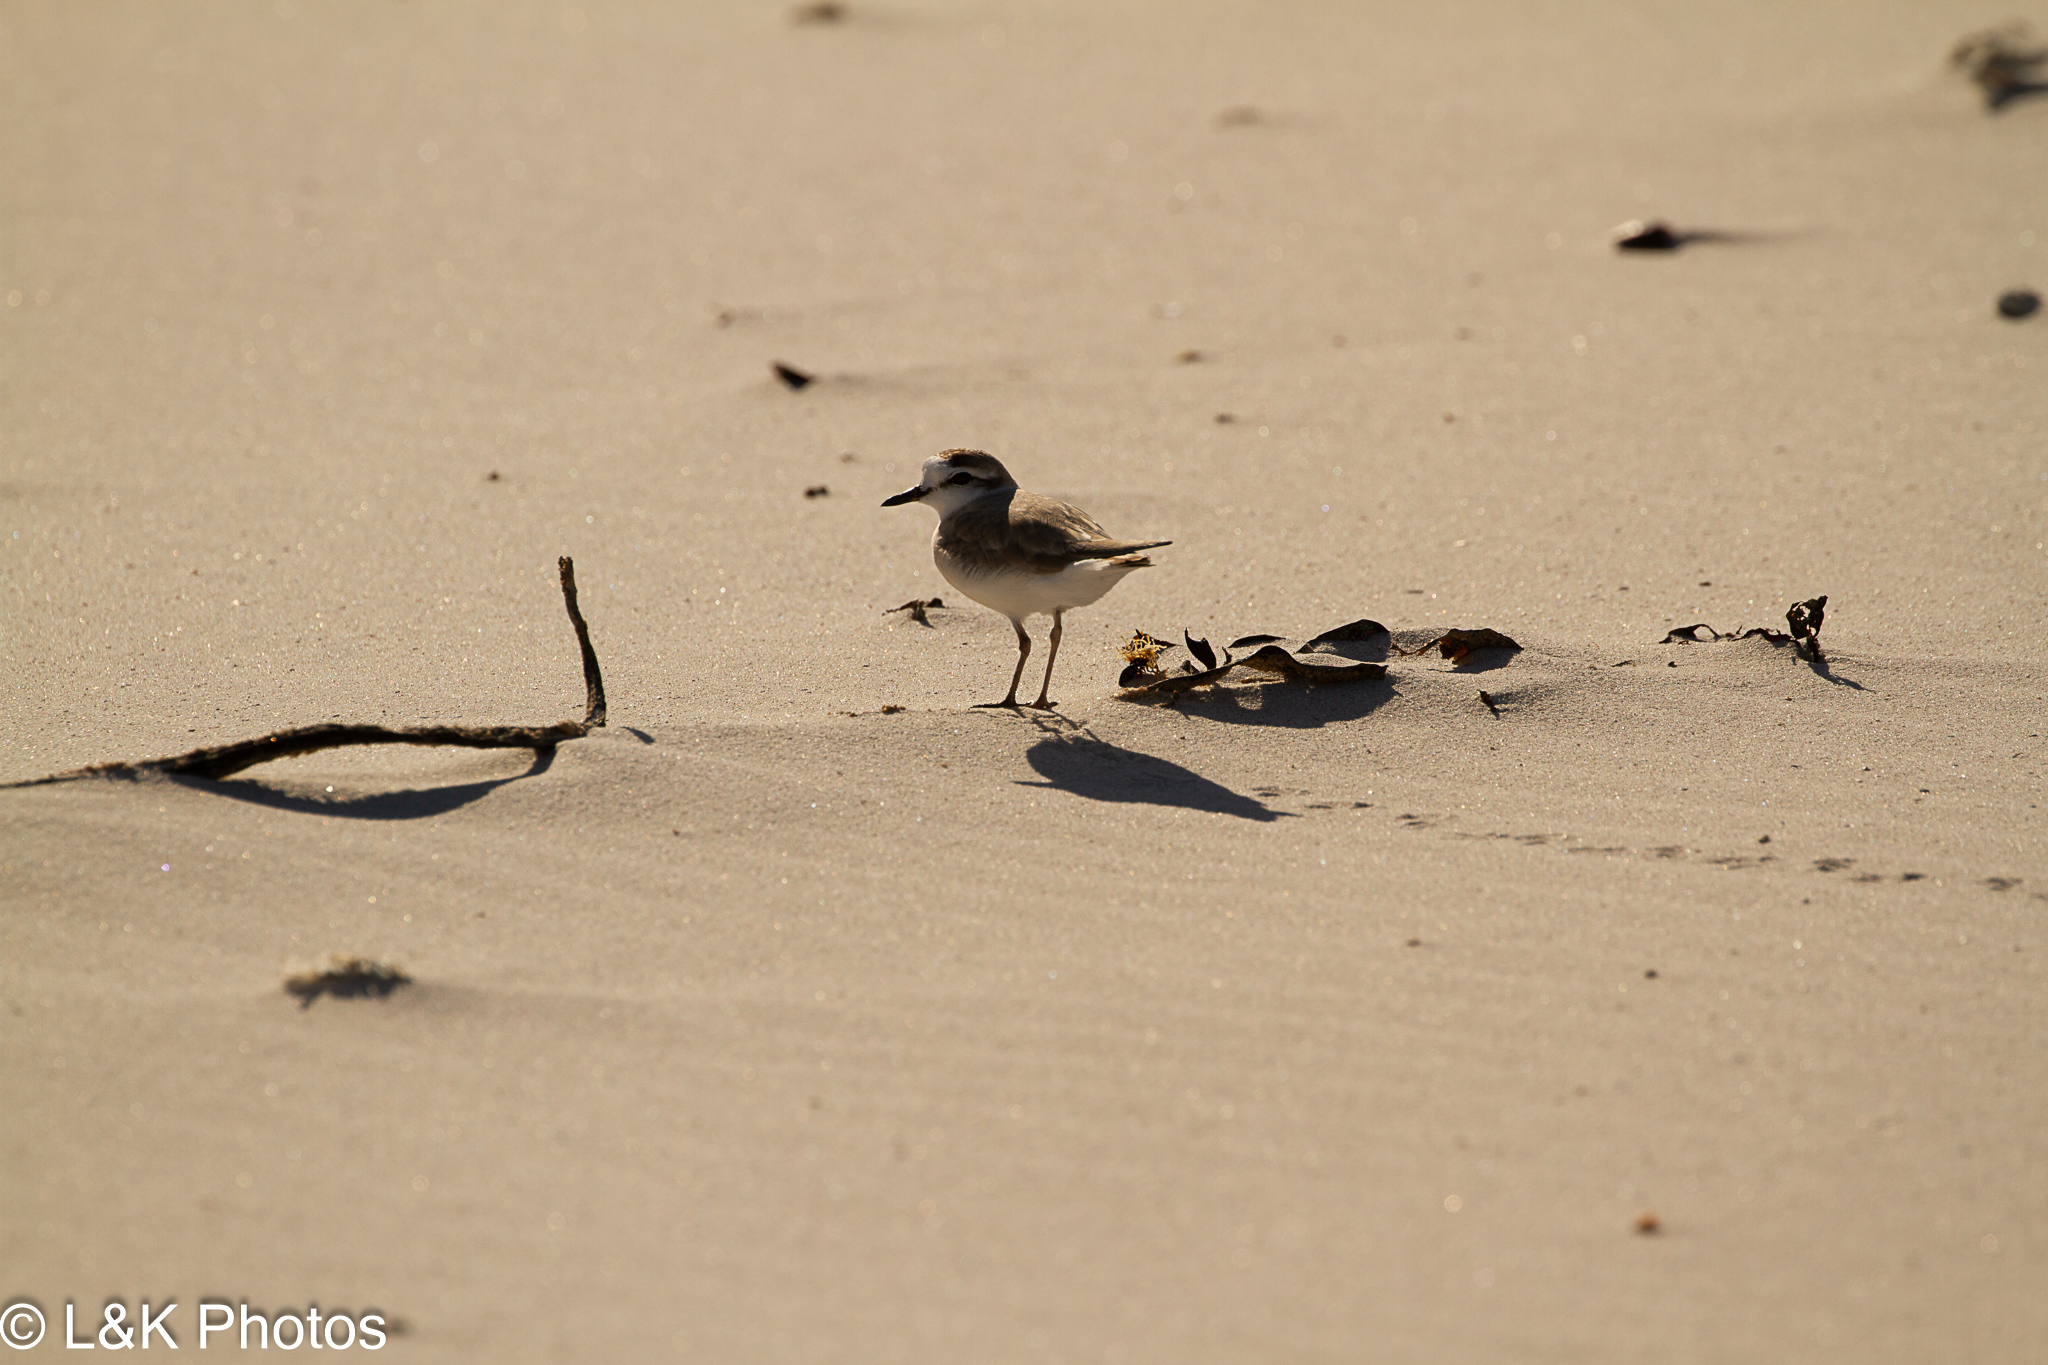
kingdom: Animalia
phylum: Chordata
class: Aves
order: Charadriiformes
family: Charadriidae
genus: Anarhynchus
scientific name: Anarhynchus
